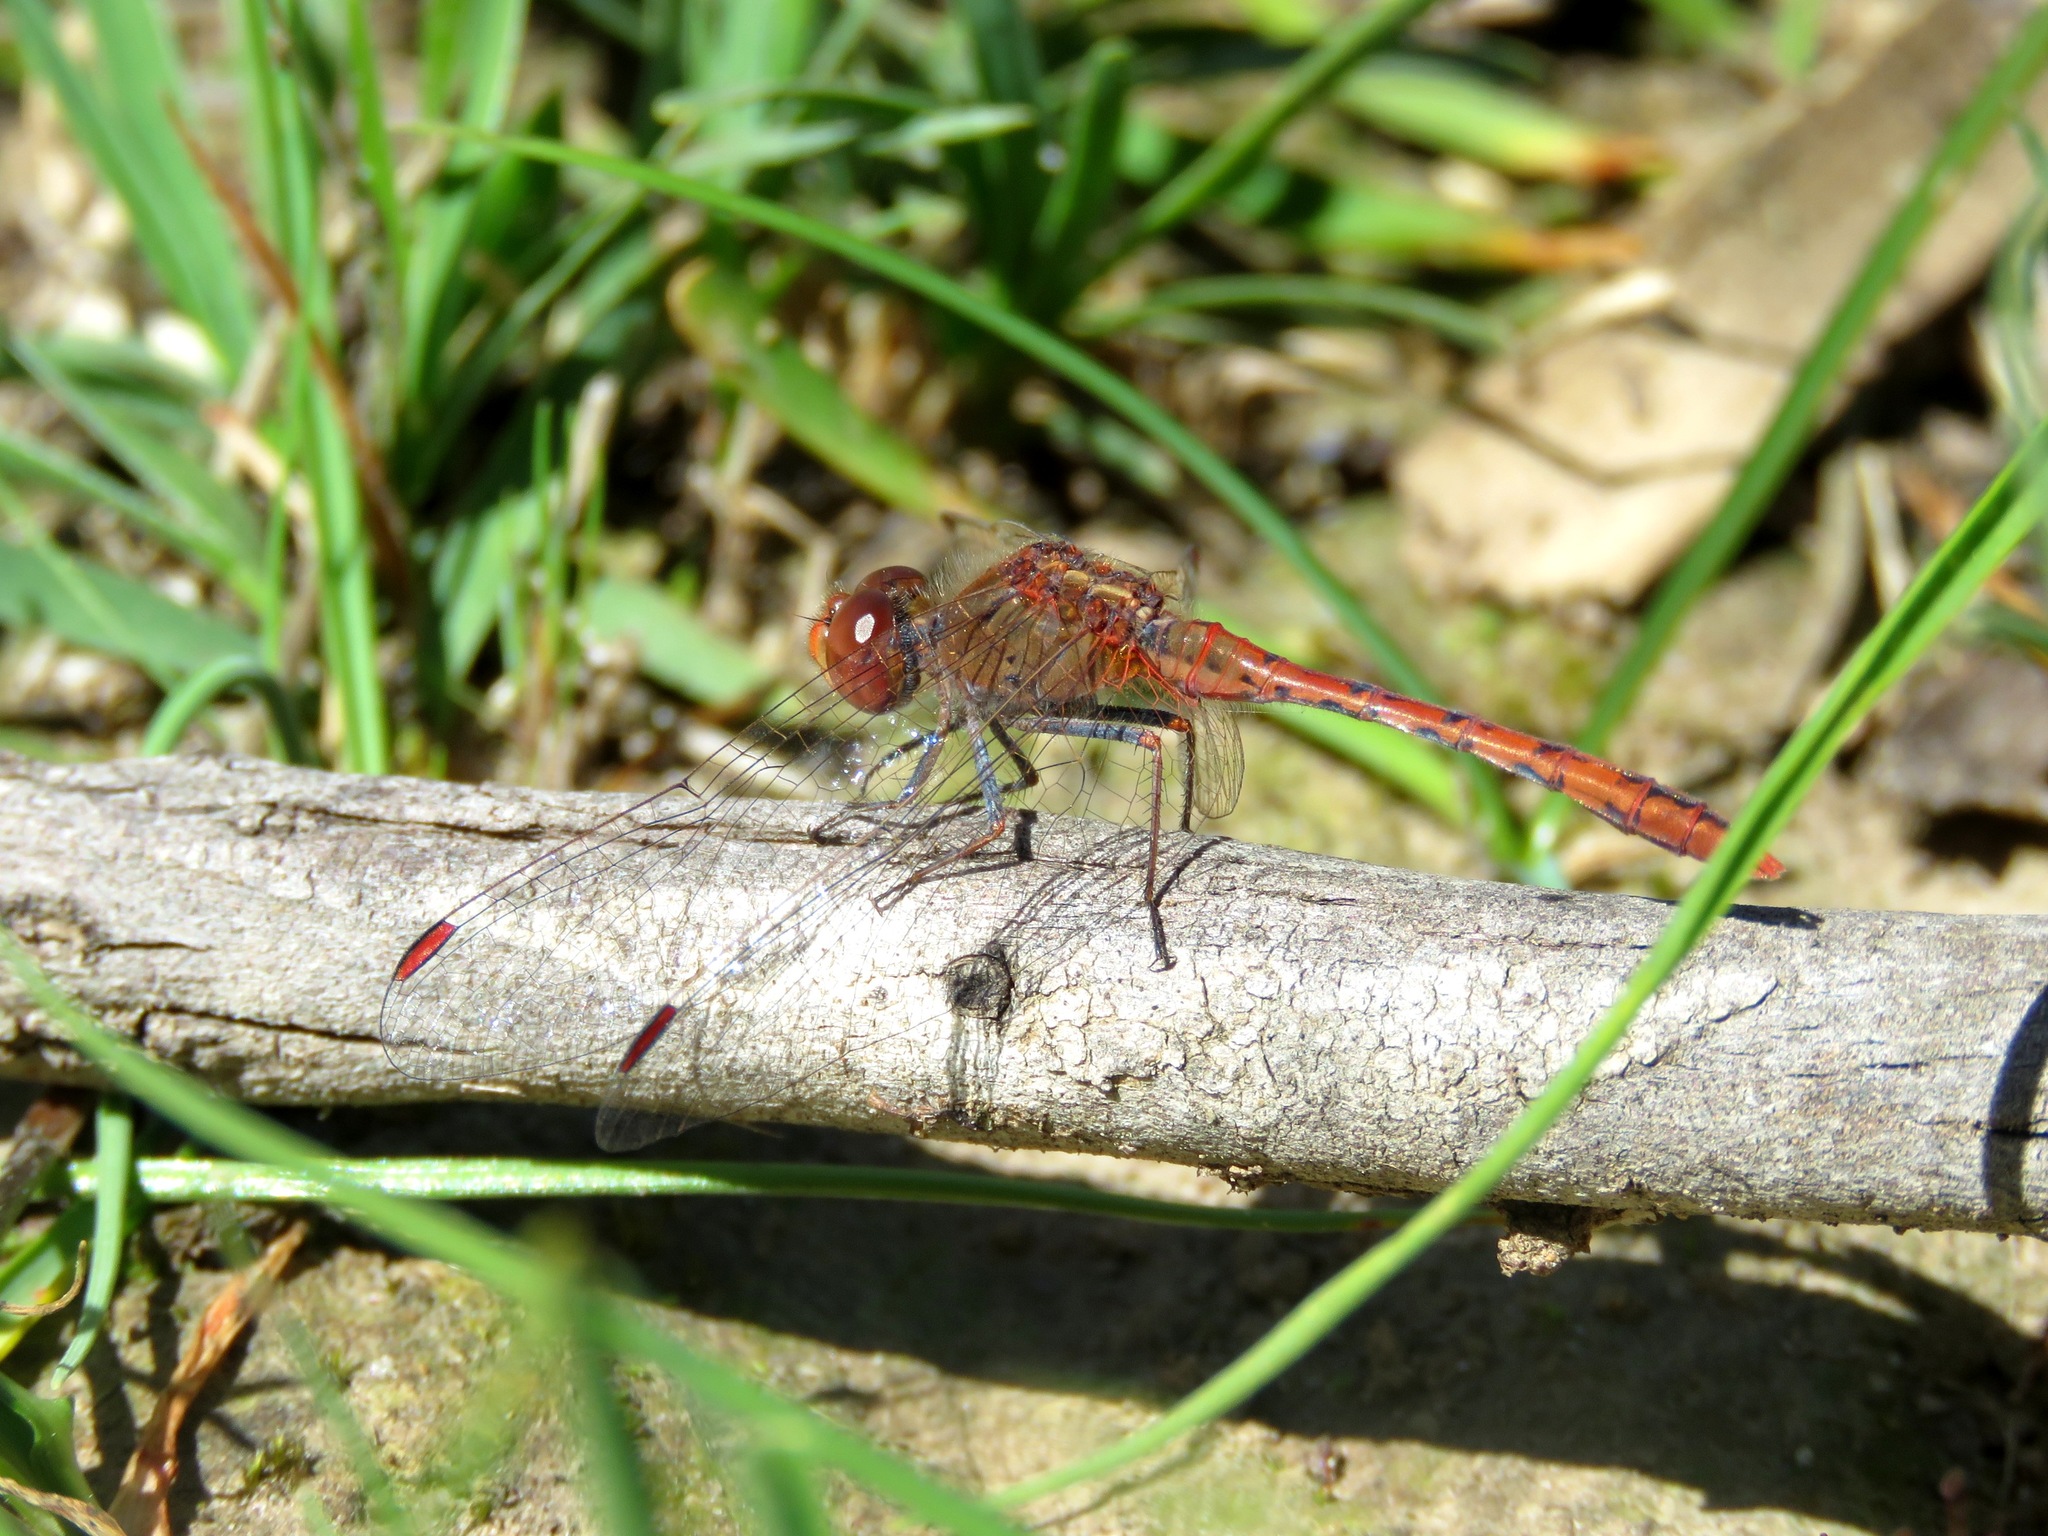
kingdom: Animalia
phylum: Arthropoda
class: Insecta
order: Odonata
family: Libellulidae
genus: Diplacodes
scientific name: Diplacodes bipunctata
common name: Red percher dragonfly
